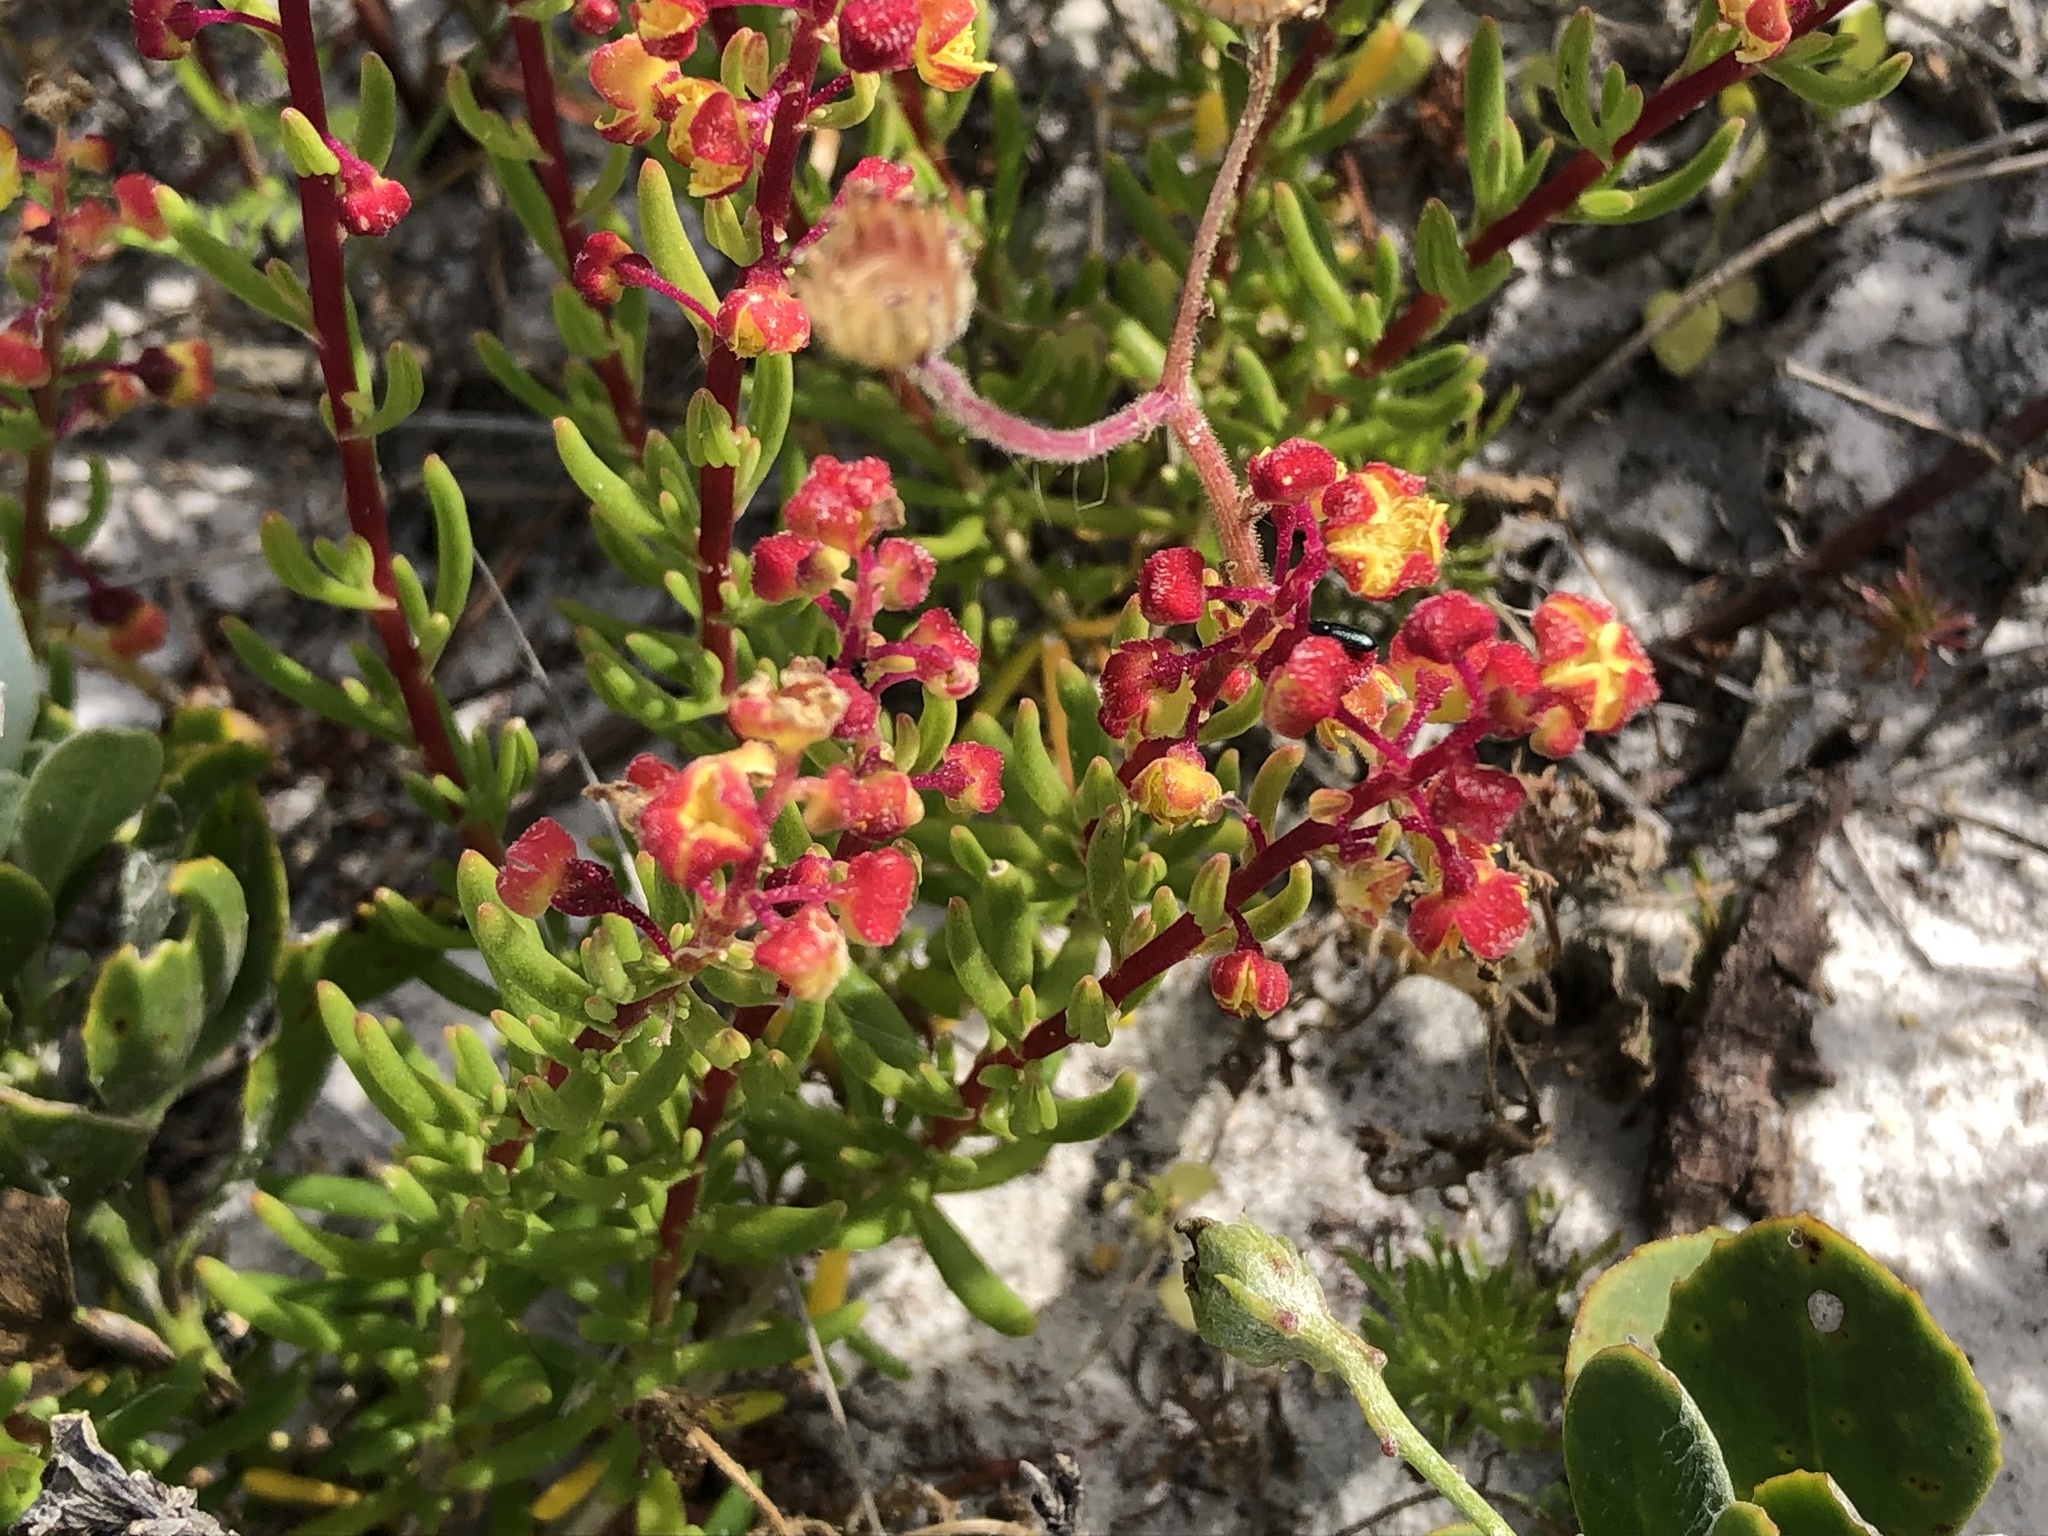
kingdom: Plantae
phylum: Tracheophyta
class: Magnoliopsida
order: Caryophyllales
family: Aizoaceae
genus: Tetragonia
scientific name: Tetragonia fruticosa
